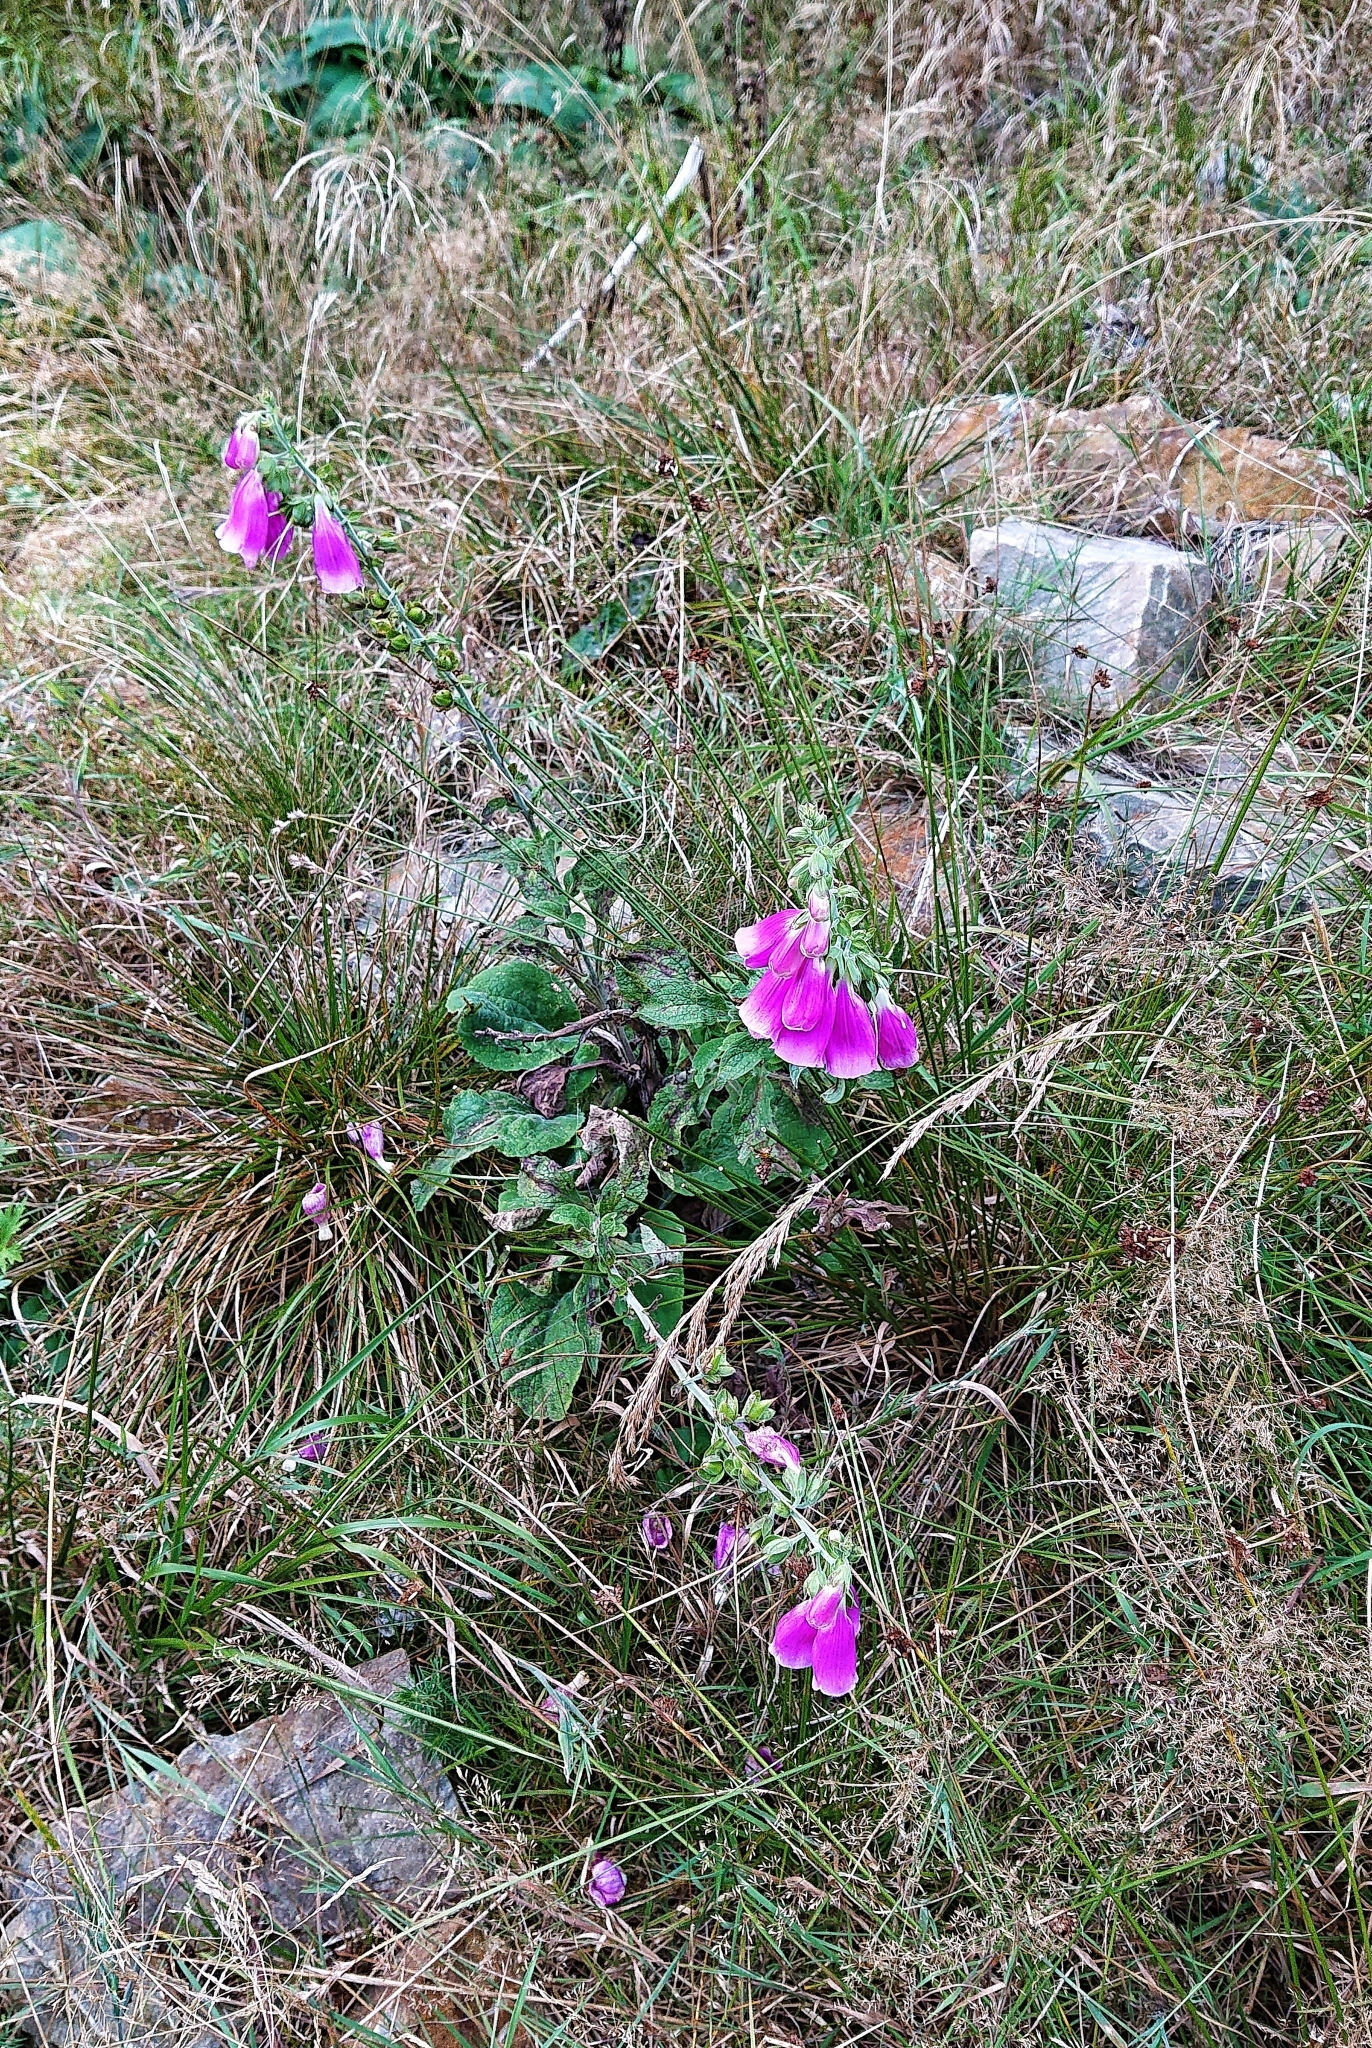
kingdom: Plantae
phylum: Tracheophyta
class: Magnoliopsida
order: Lamiales
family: Plantaginaceae
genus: Digitalis
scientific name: Digitalis purpurea
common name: Foxglove
